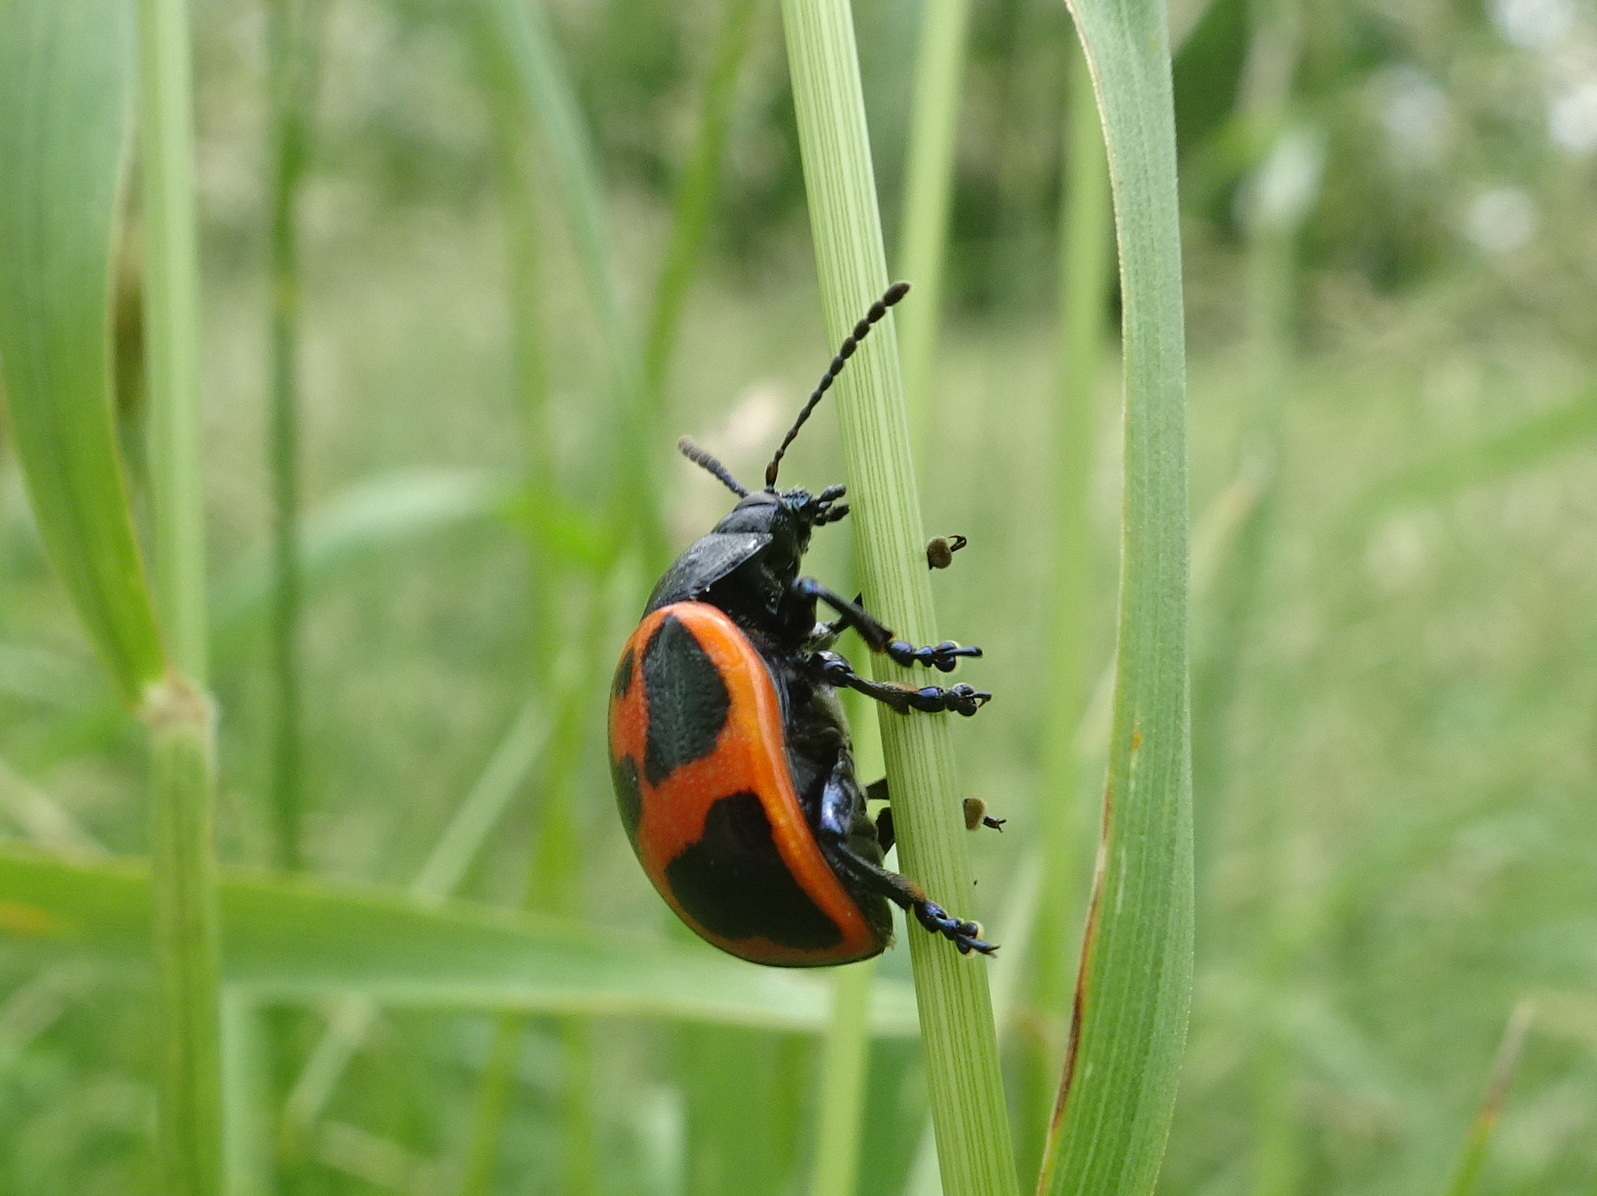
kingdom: Animalia
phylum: Arthropoda
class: Insecta
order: Coleoptera
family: Chrysomelidae
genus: Labidomera
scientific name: Labidomera clivicollis
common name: Swamp milkweed leaf beetle
